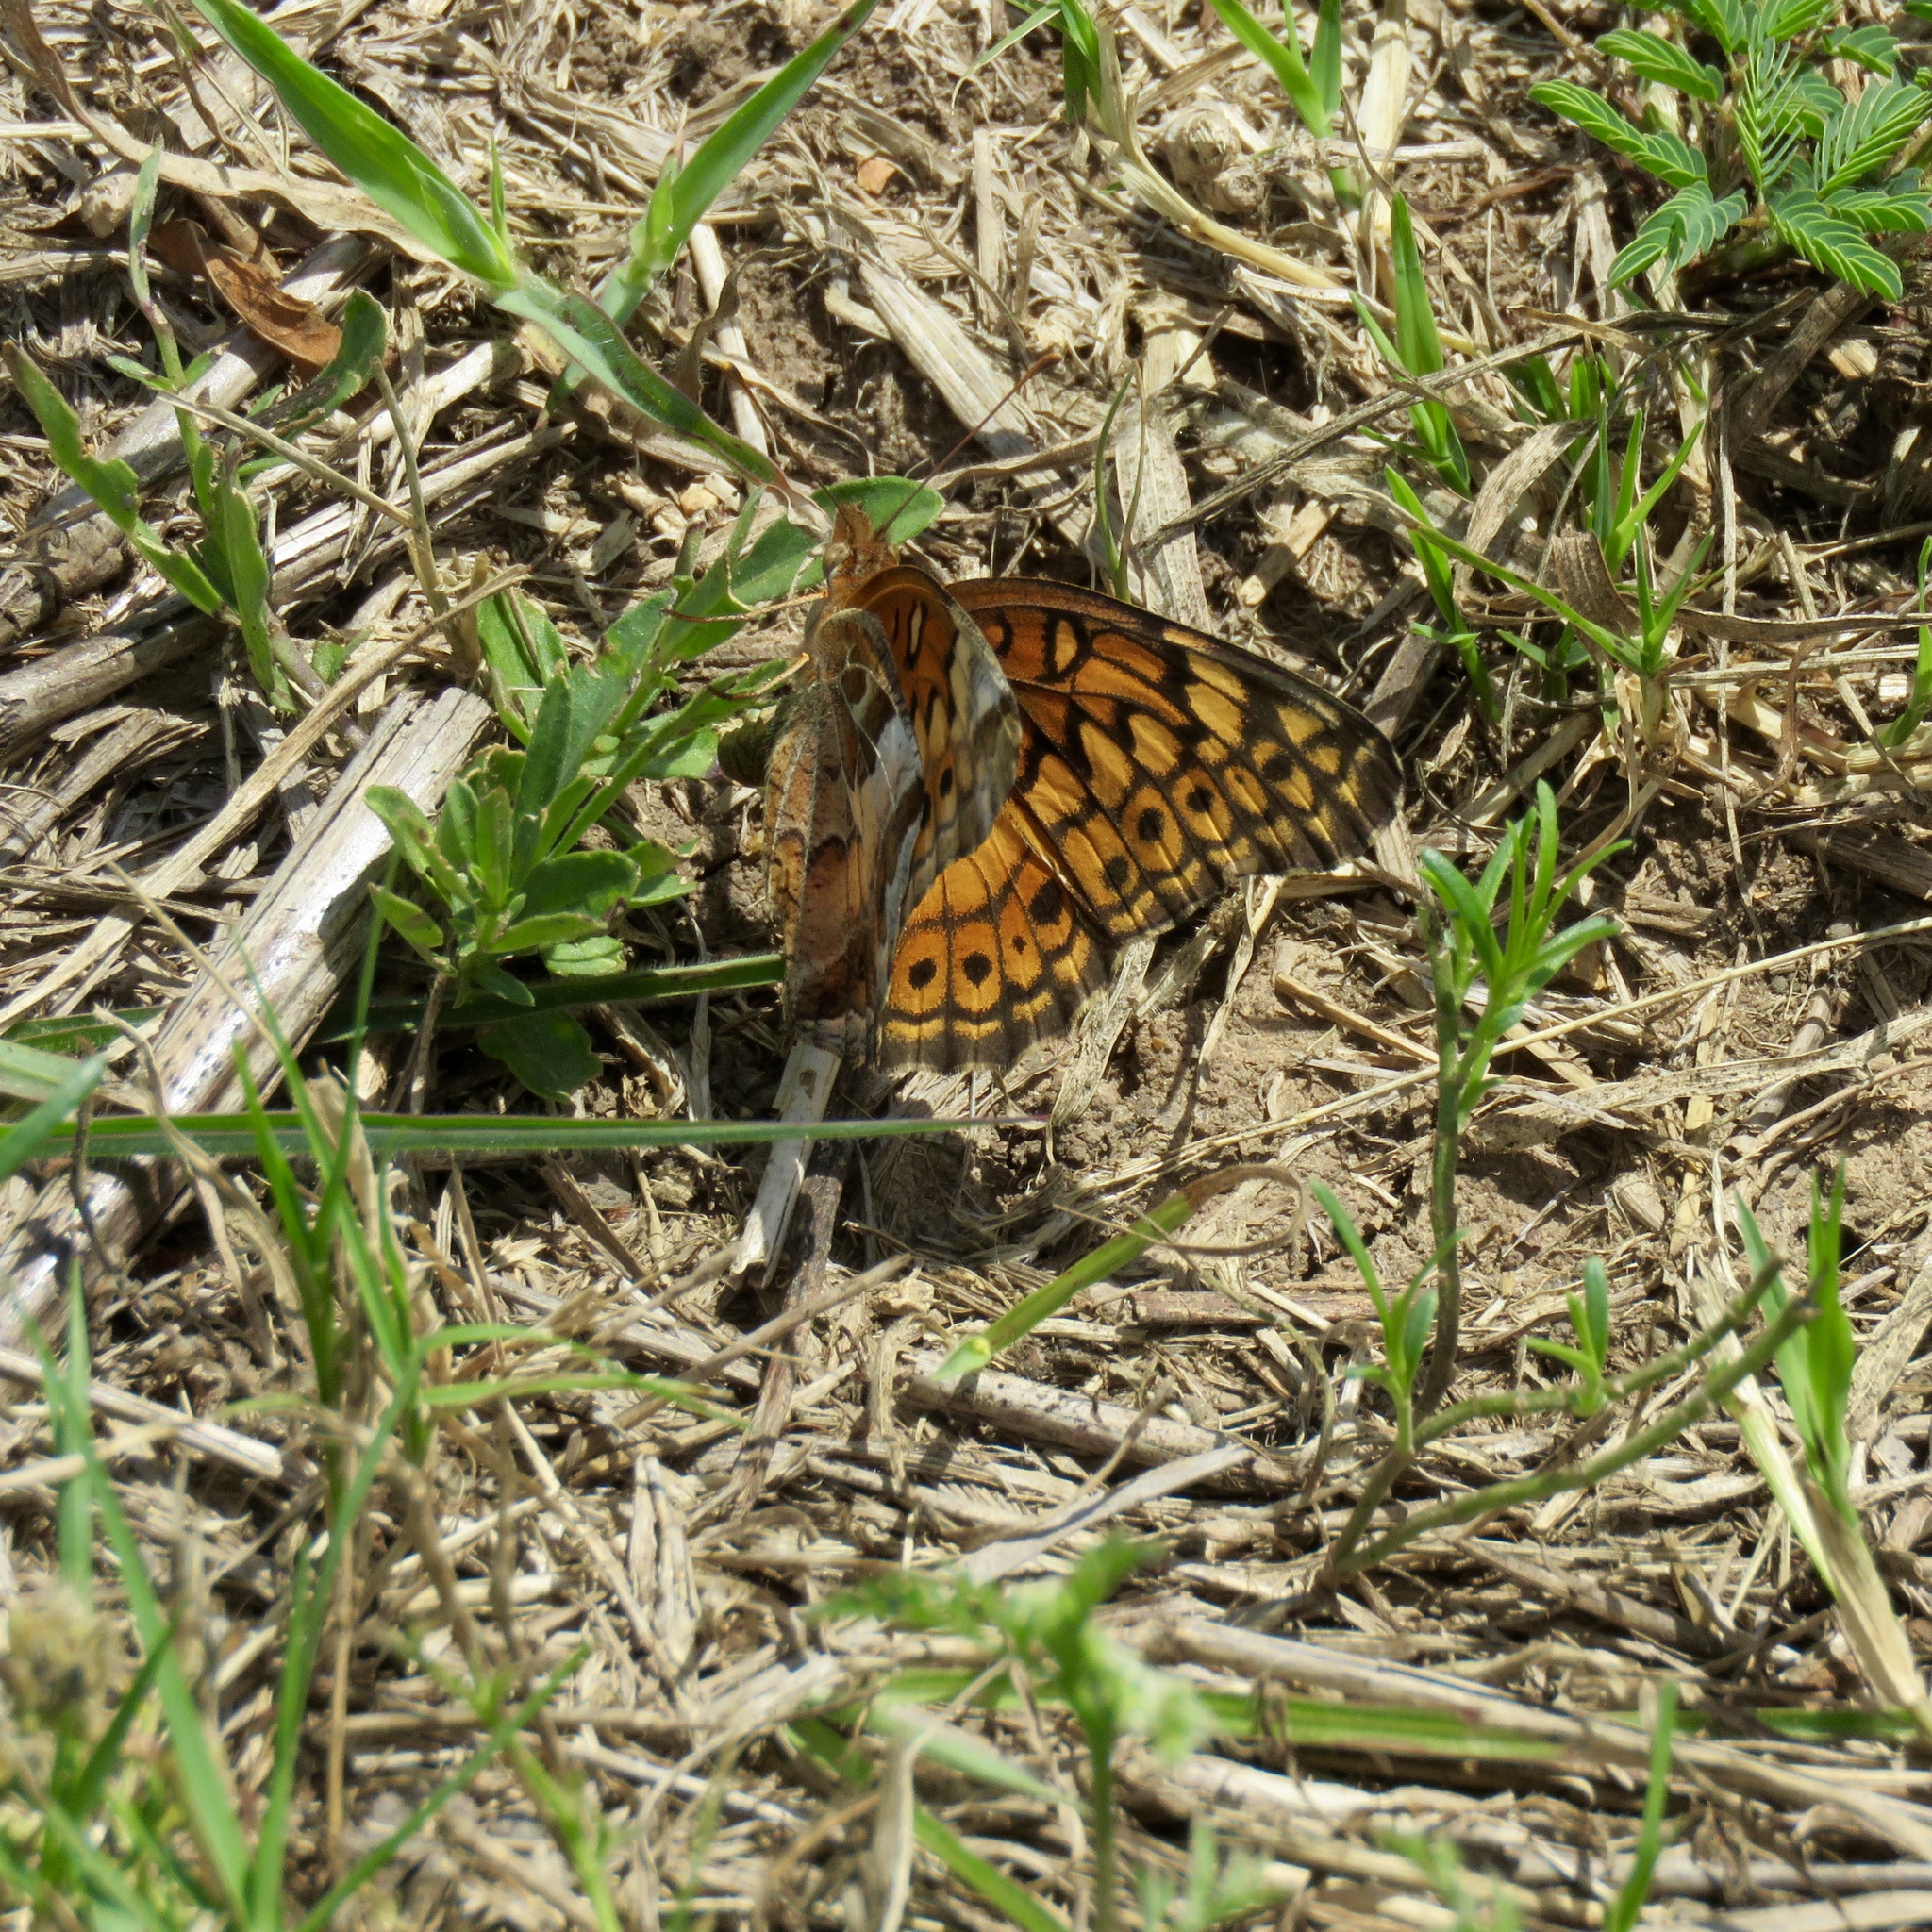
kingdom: Animalia
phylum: Arthropoda
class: Insecta
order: Lepidoptera
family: Nymphalidae
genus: Euptoieta
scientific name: Euptoieta claudia
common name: Variegated fritillary
